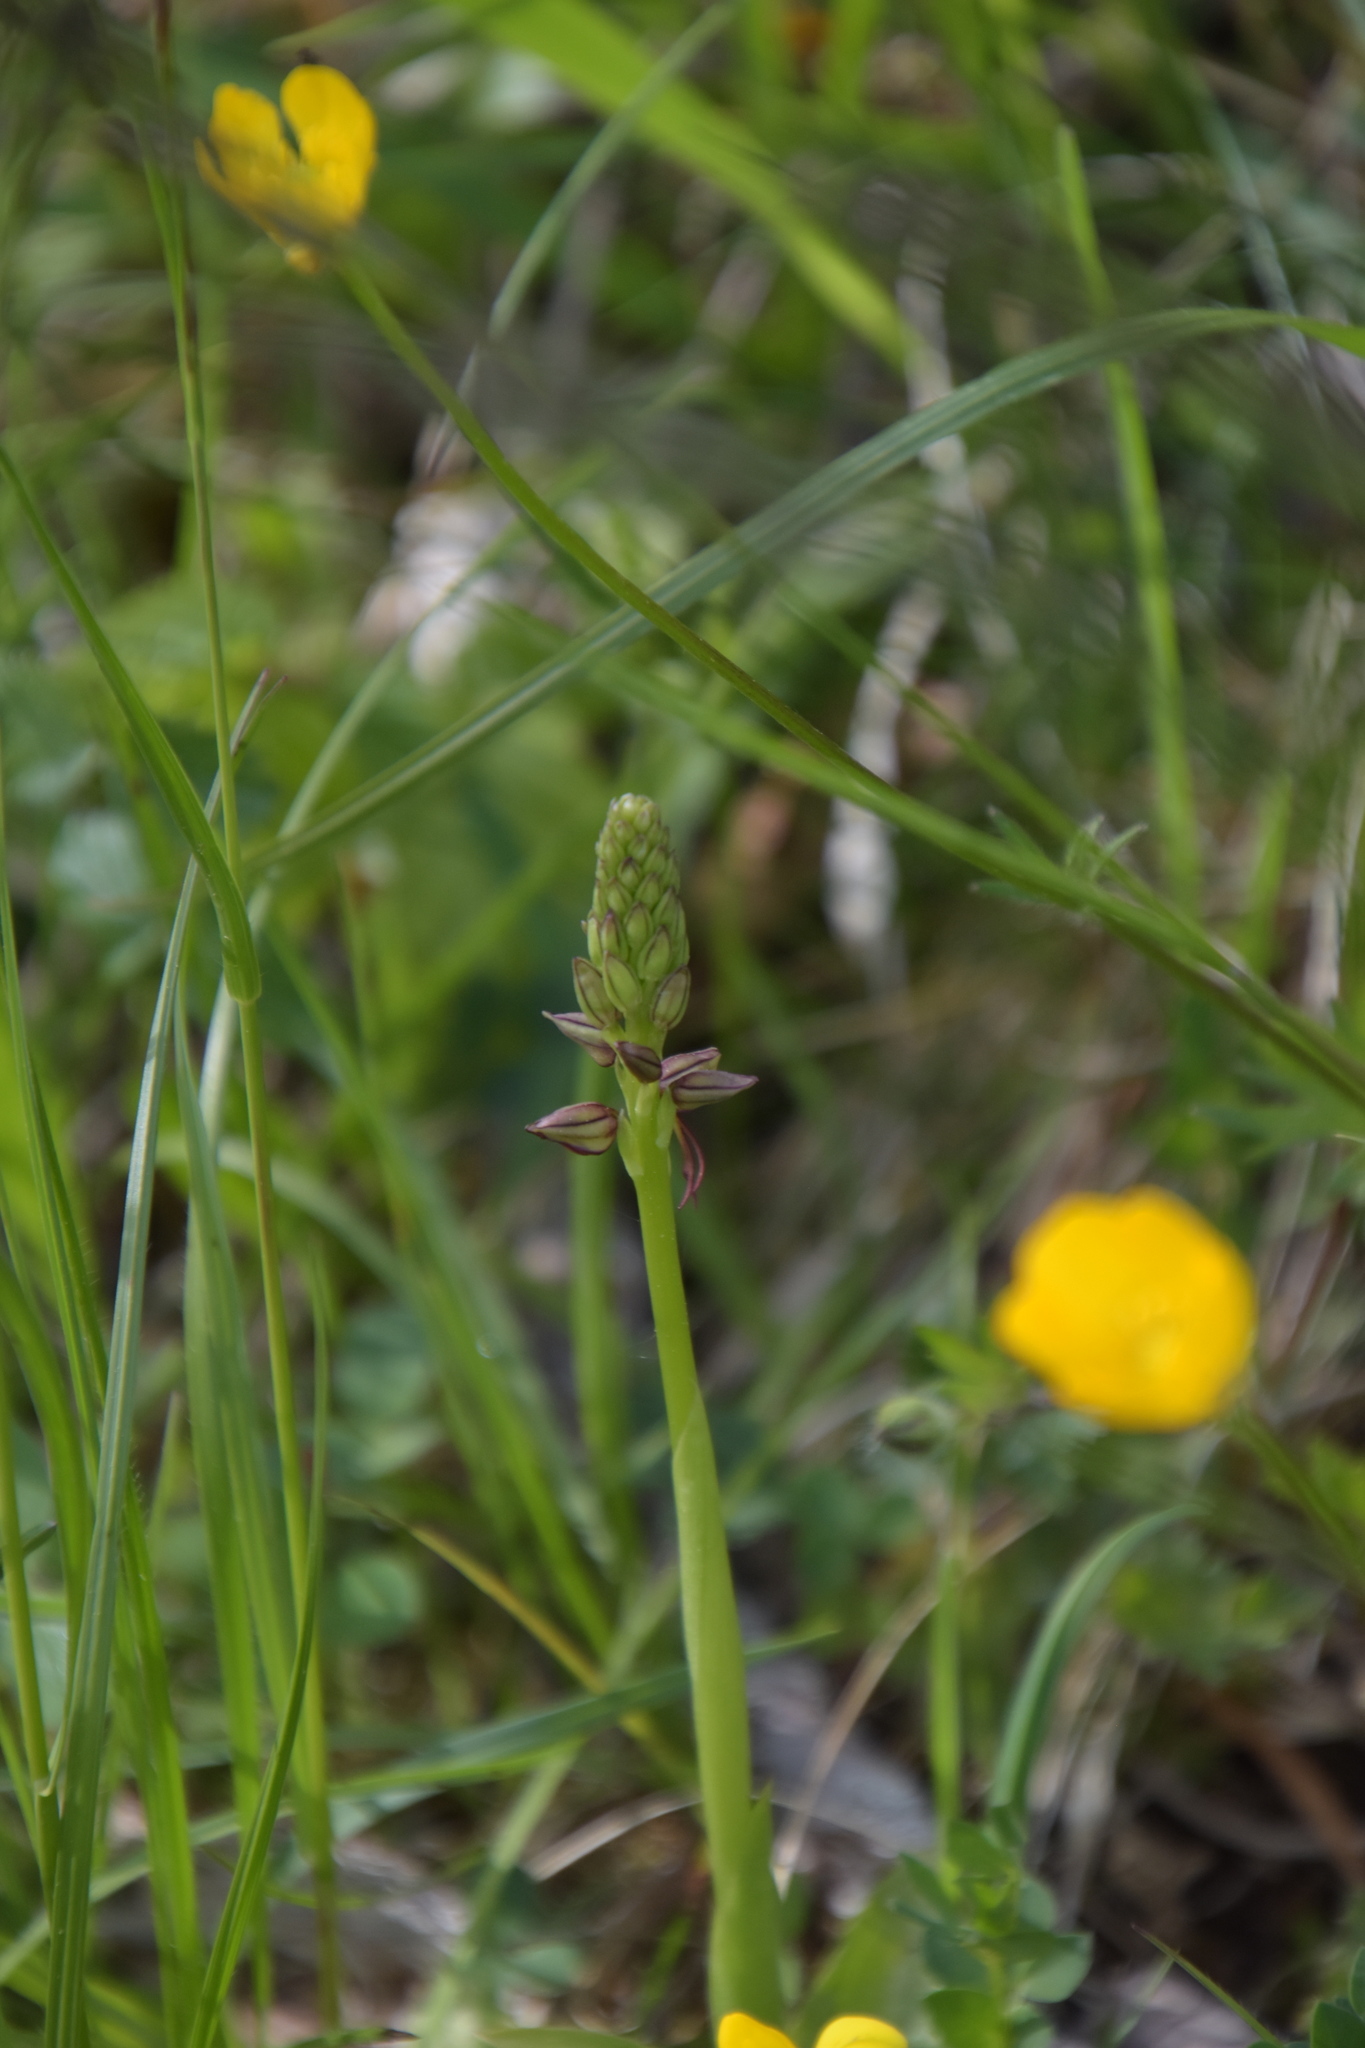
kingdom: Plantae
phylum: Tracheophyta
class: Liliopsida
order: Asparagales
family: Orchidaceae
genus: Orchis
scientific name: Orchis anthropophora
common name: Man orchid
